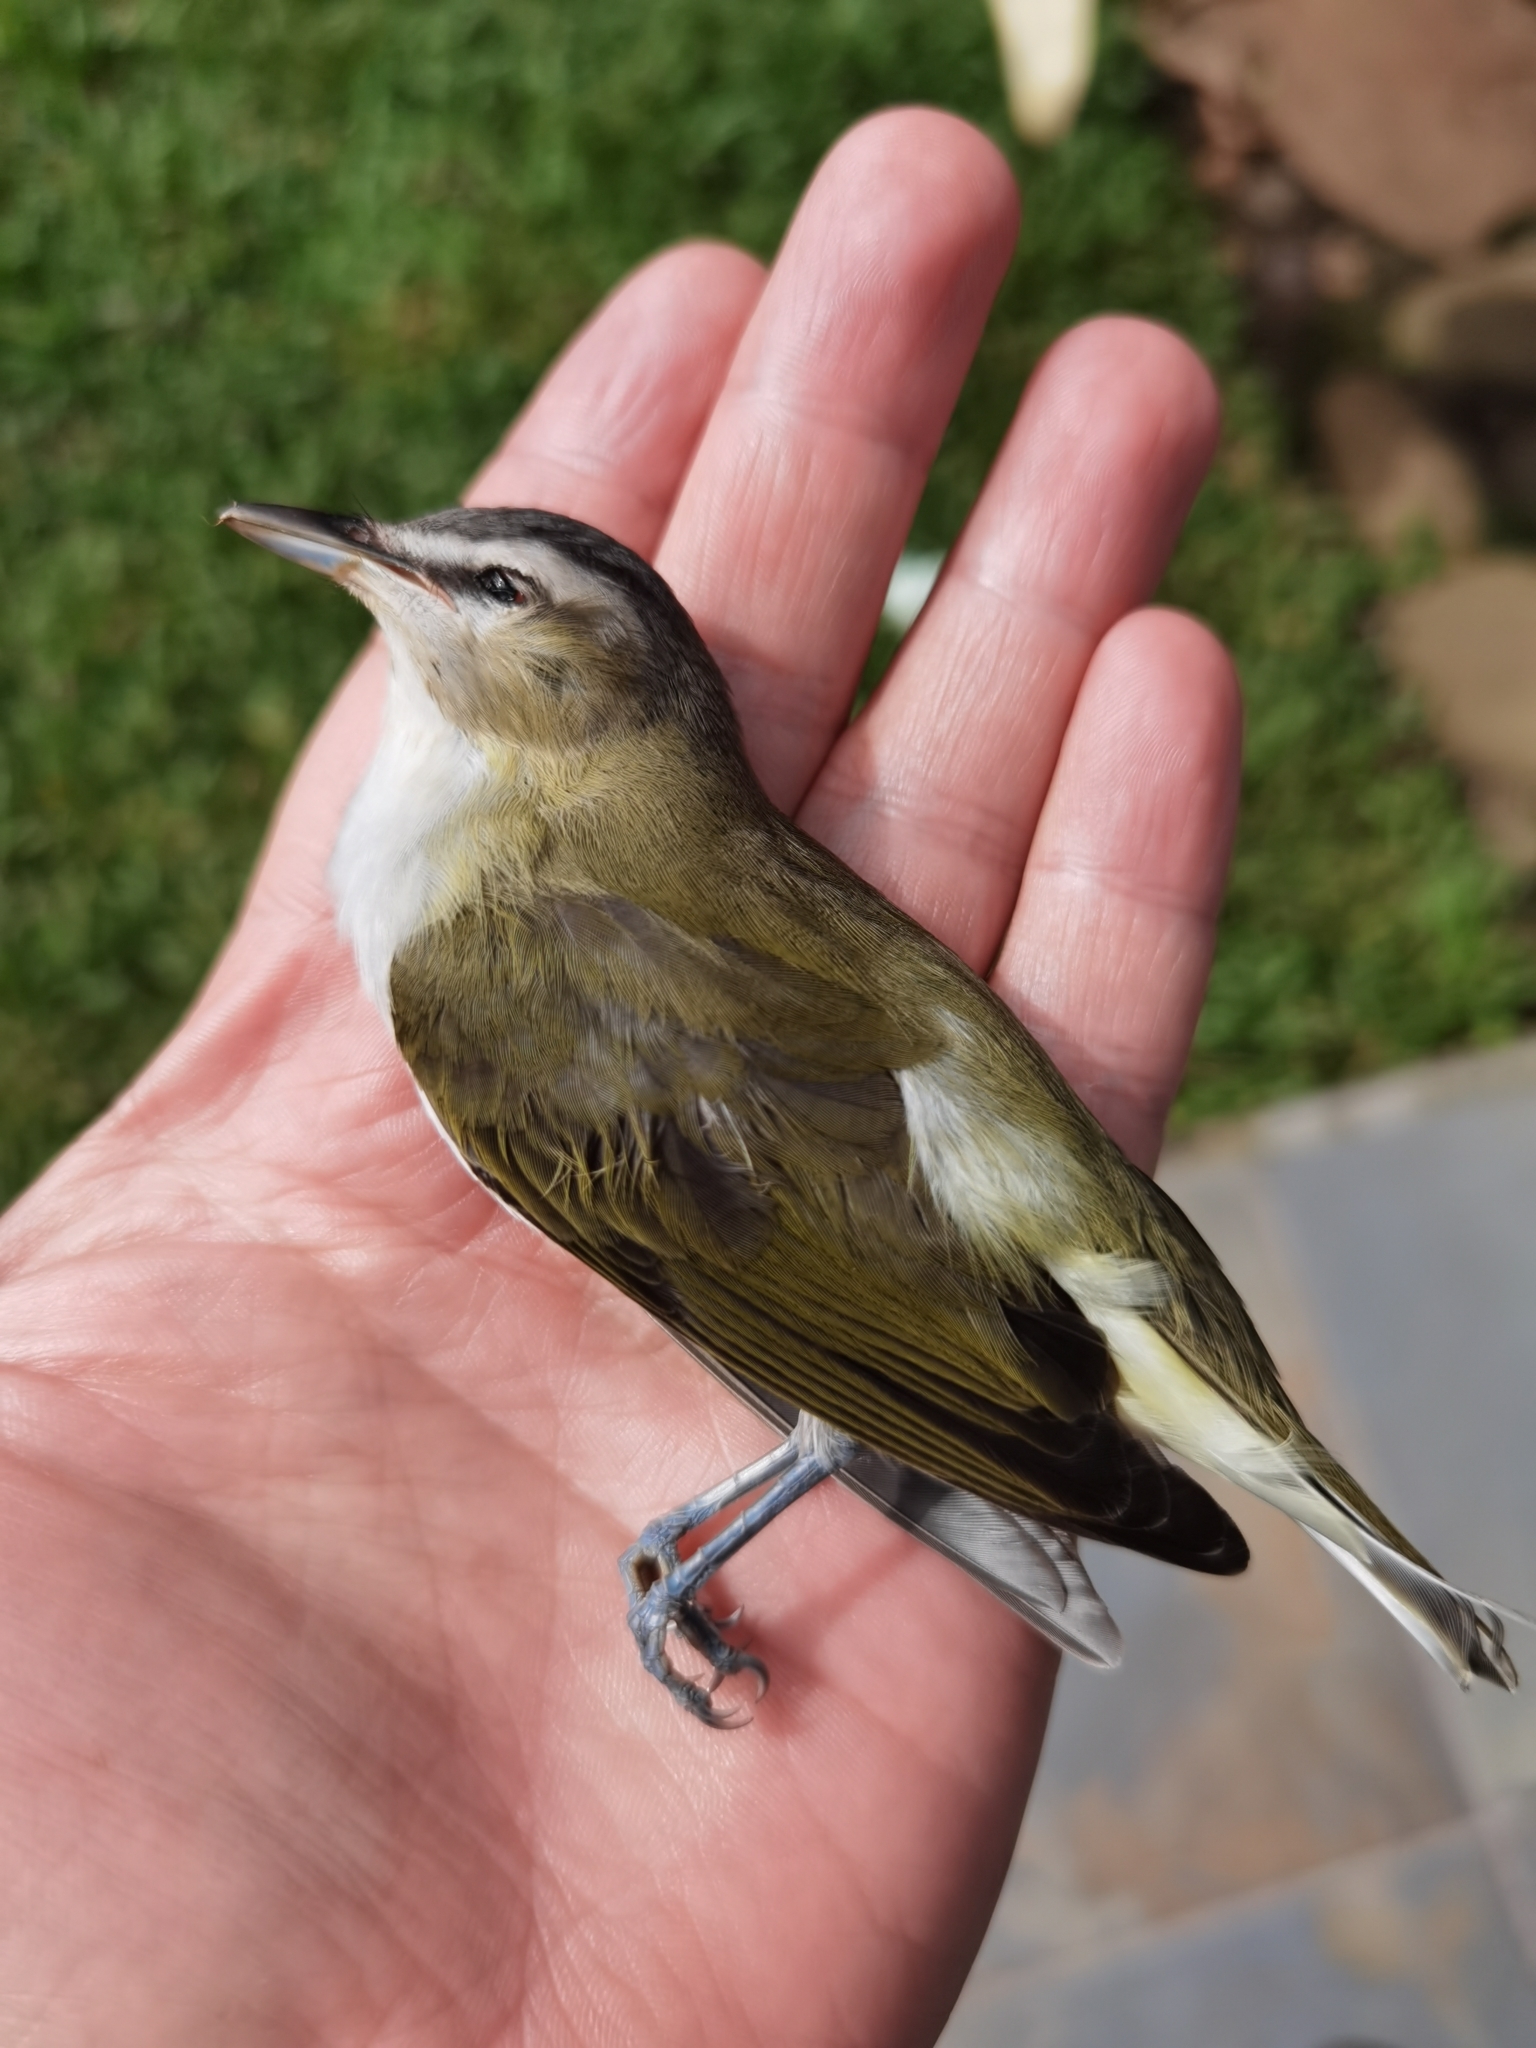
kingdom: Animalia
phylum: Chordata
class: Aves
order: Passeriformes
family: Vireonidae
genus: Vireo
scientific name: Vireo olivaceus
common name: Red-eyed vireo
